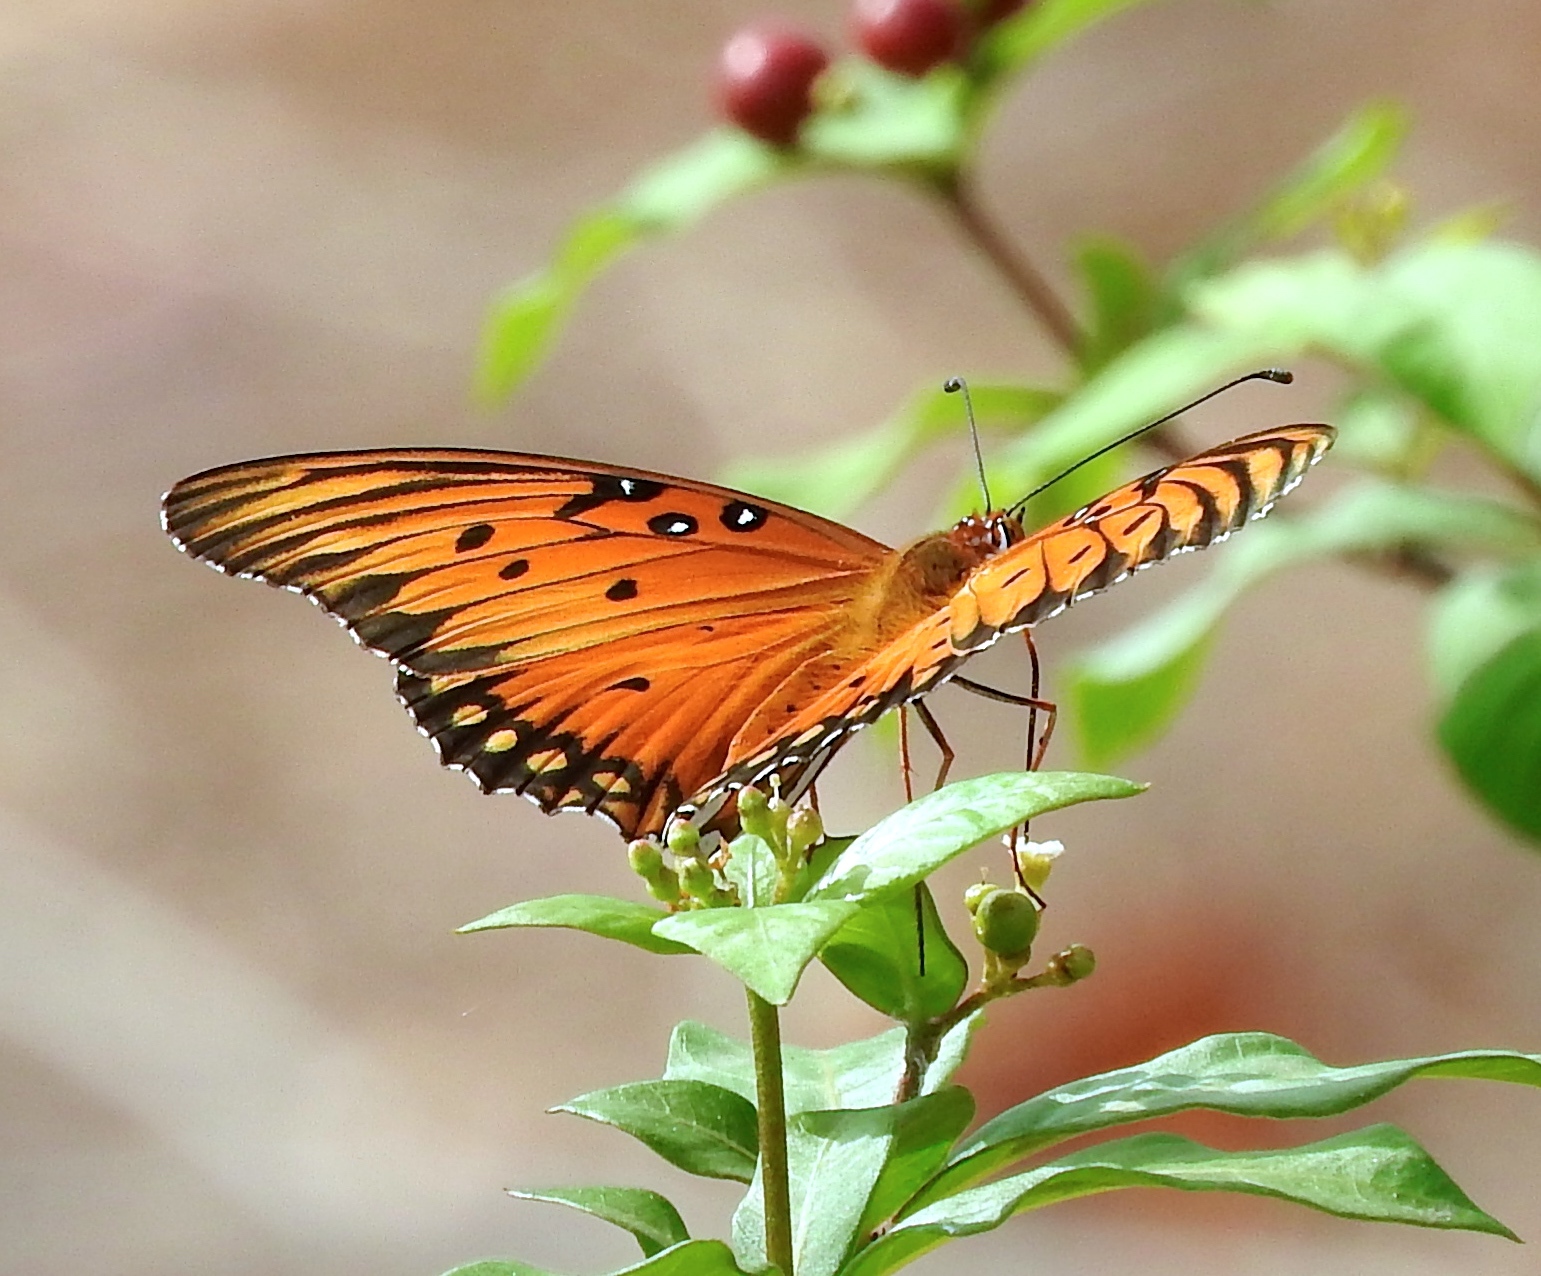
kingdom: Animalia
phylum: Arthropoda
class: Insecta
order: Lepidoptera
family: Nymphalidae
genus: Dione
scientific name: Dione vanillae
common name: Gulf fritillary
